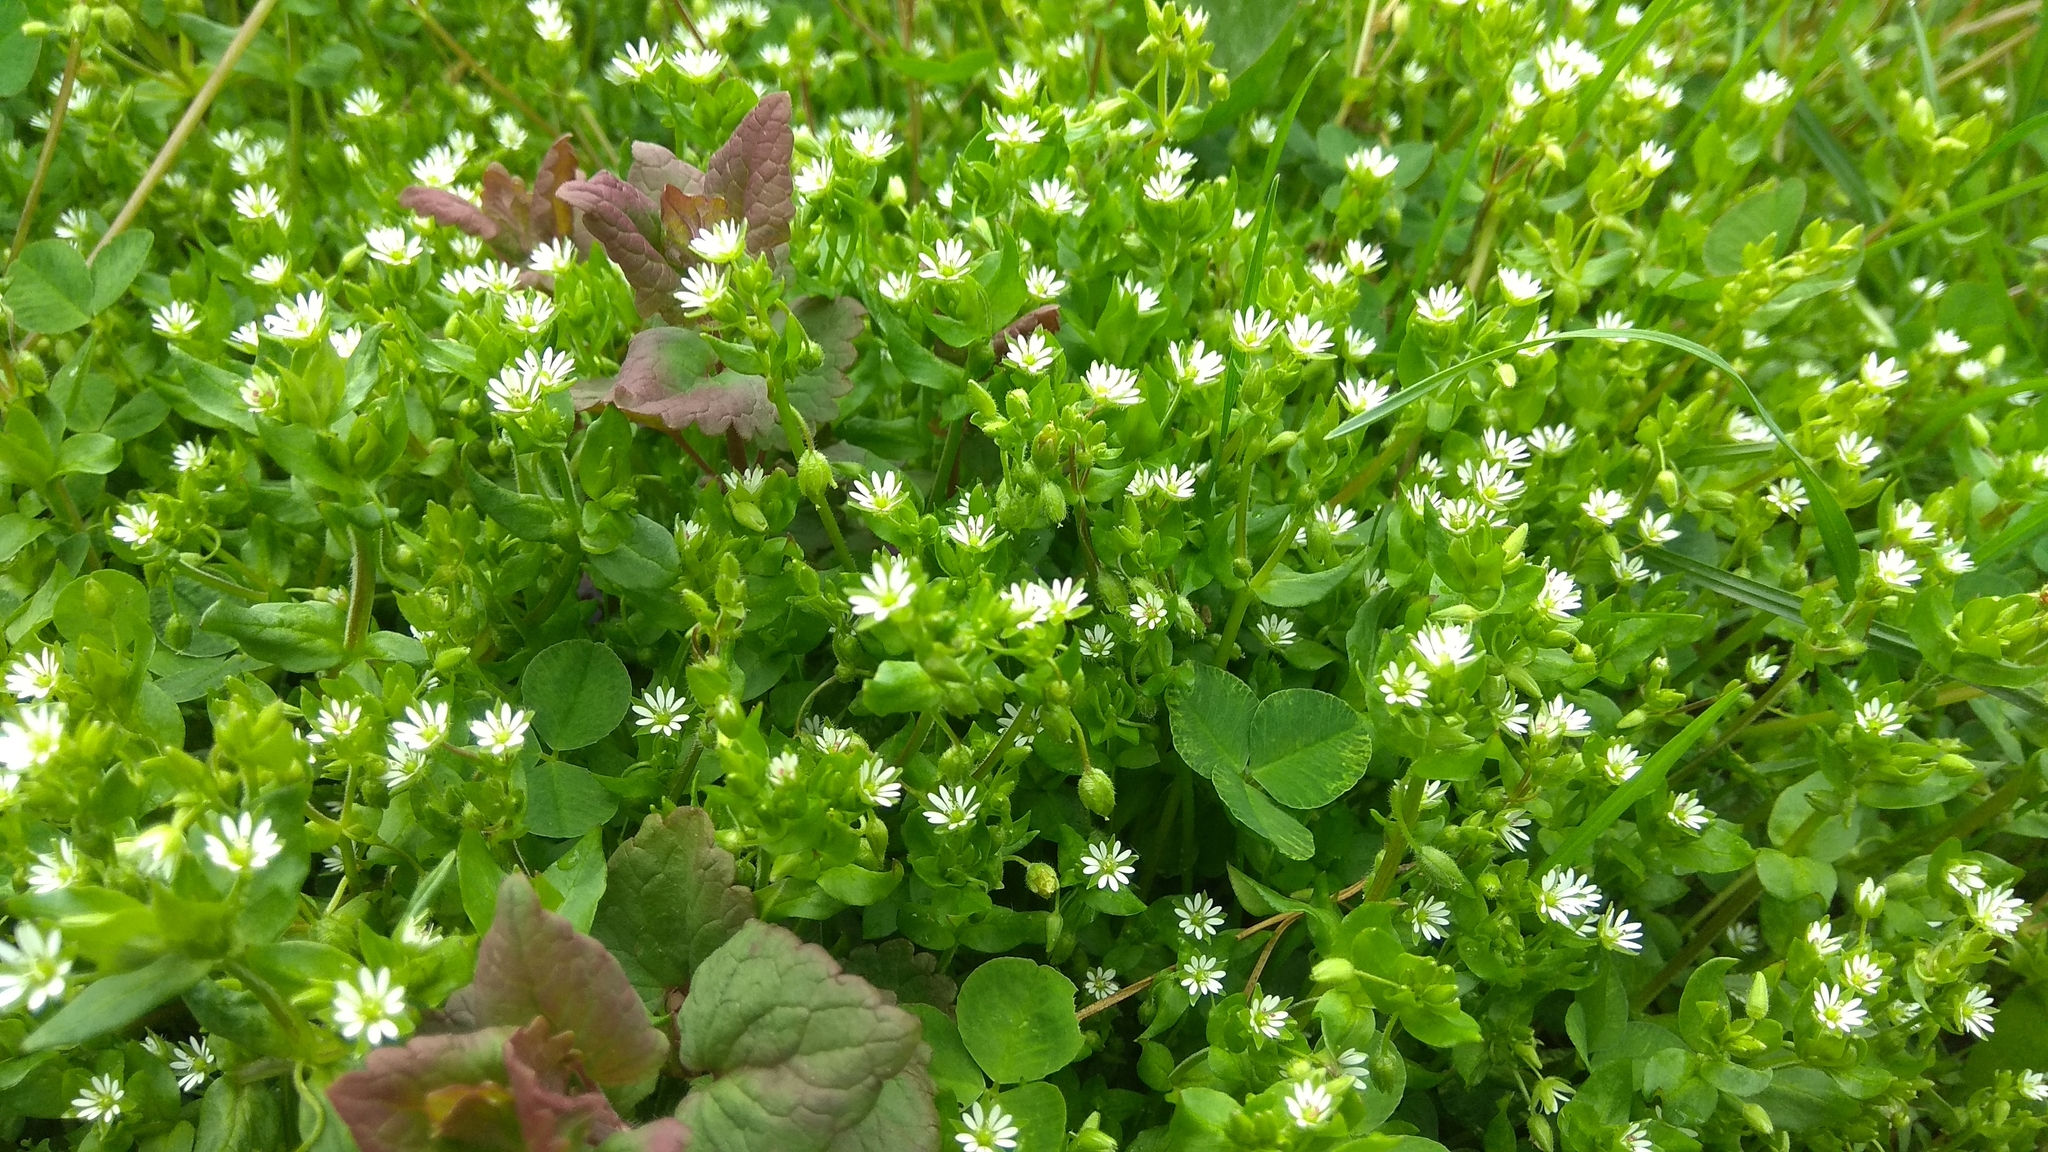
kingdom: Plantae
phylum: Tracheophyta
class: Magnoliopsida
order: Caryophyllales
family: Caryophyllaceae
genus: Stellaria
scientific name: Stellaria media
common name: Common chickweed
